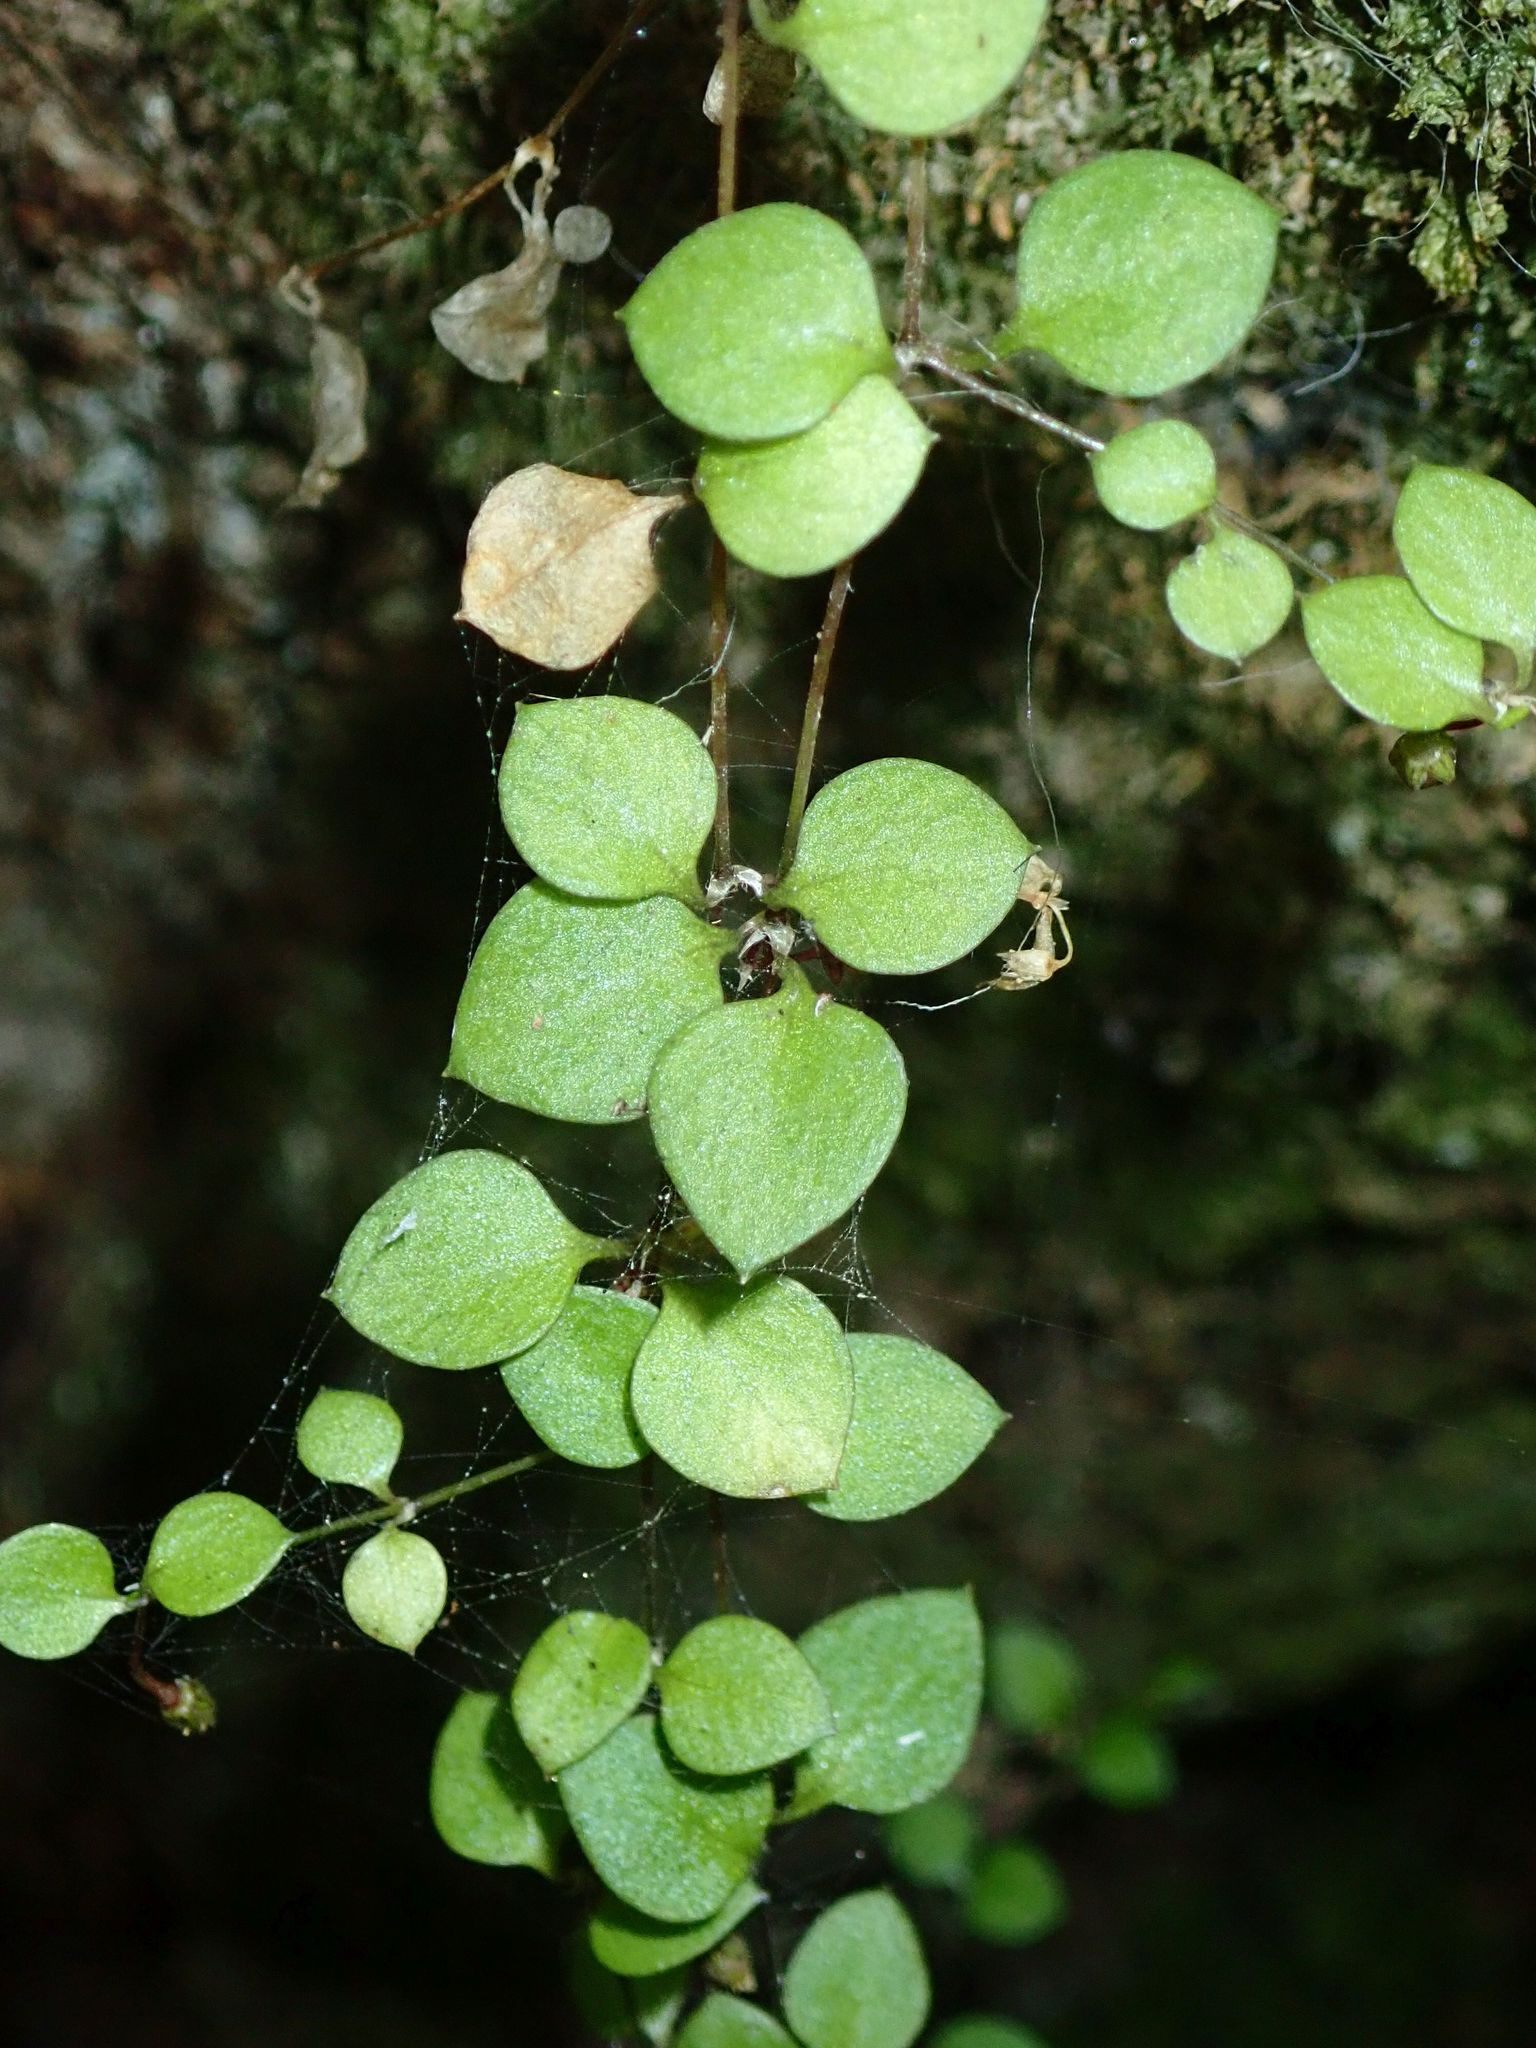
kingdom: Plantae
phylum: Tracheophyta
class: Magnoliopsida
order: Caryophyllales
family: Caryophyllaceae
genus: Stellaria
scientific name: Stellaria parviflora
